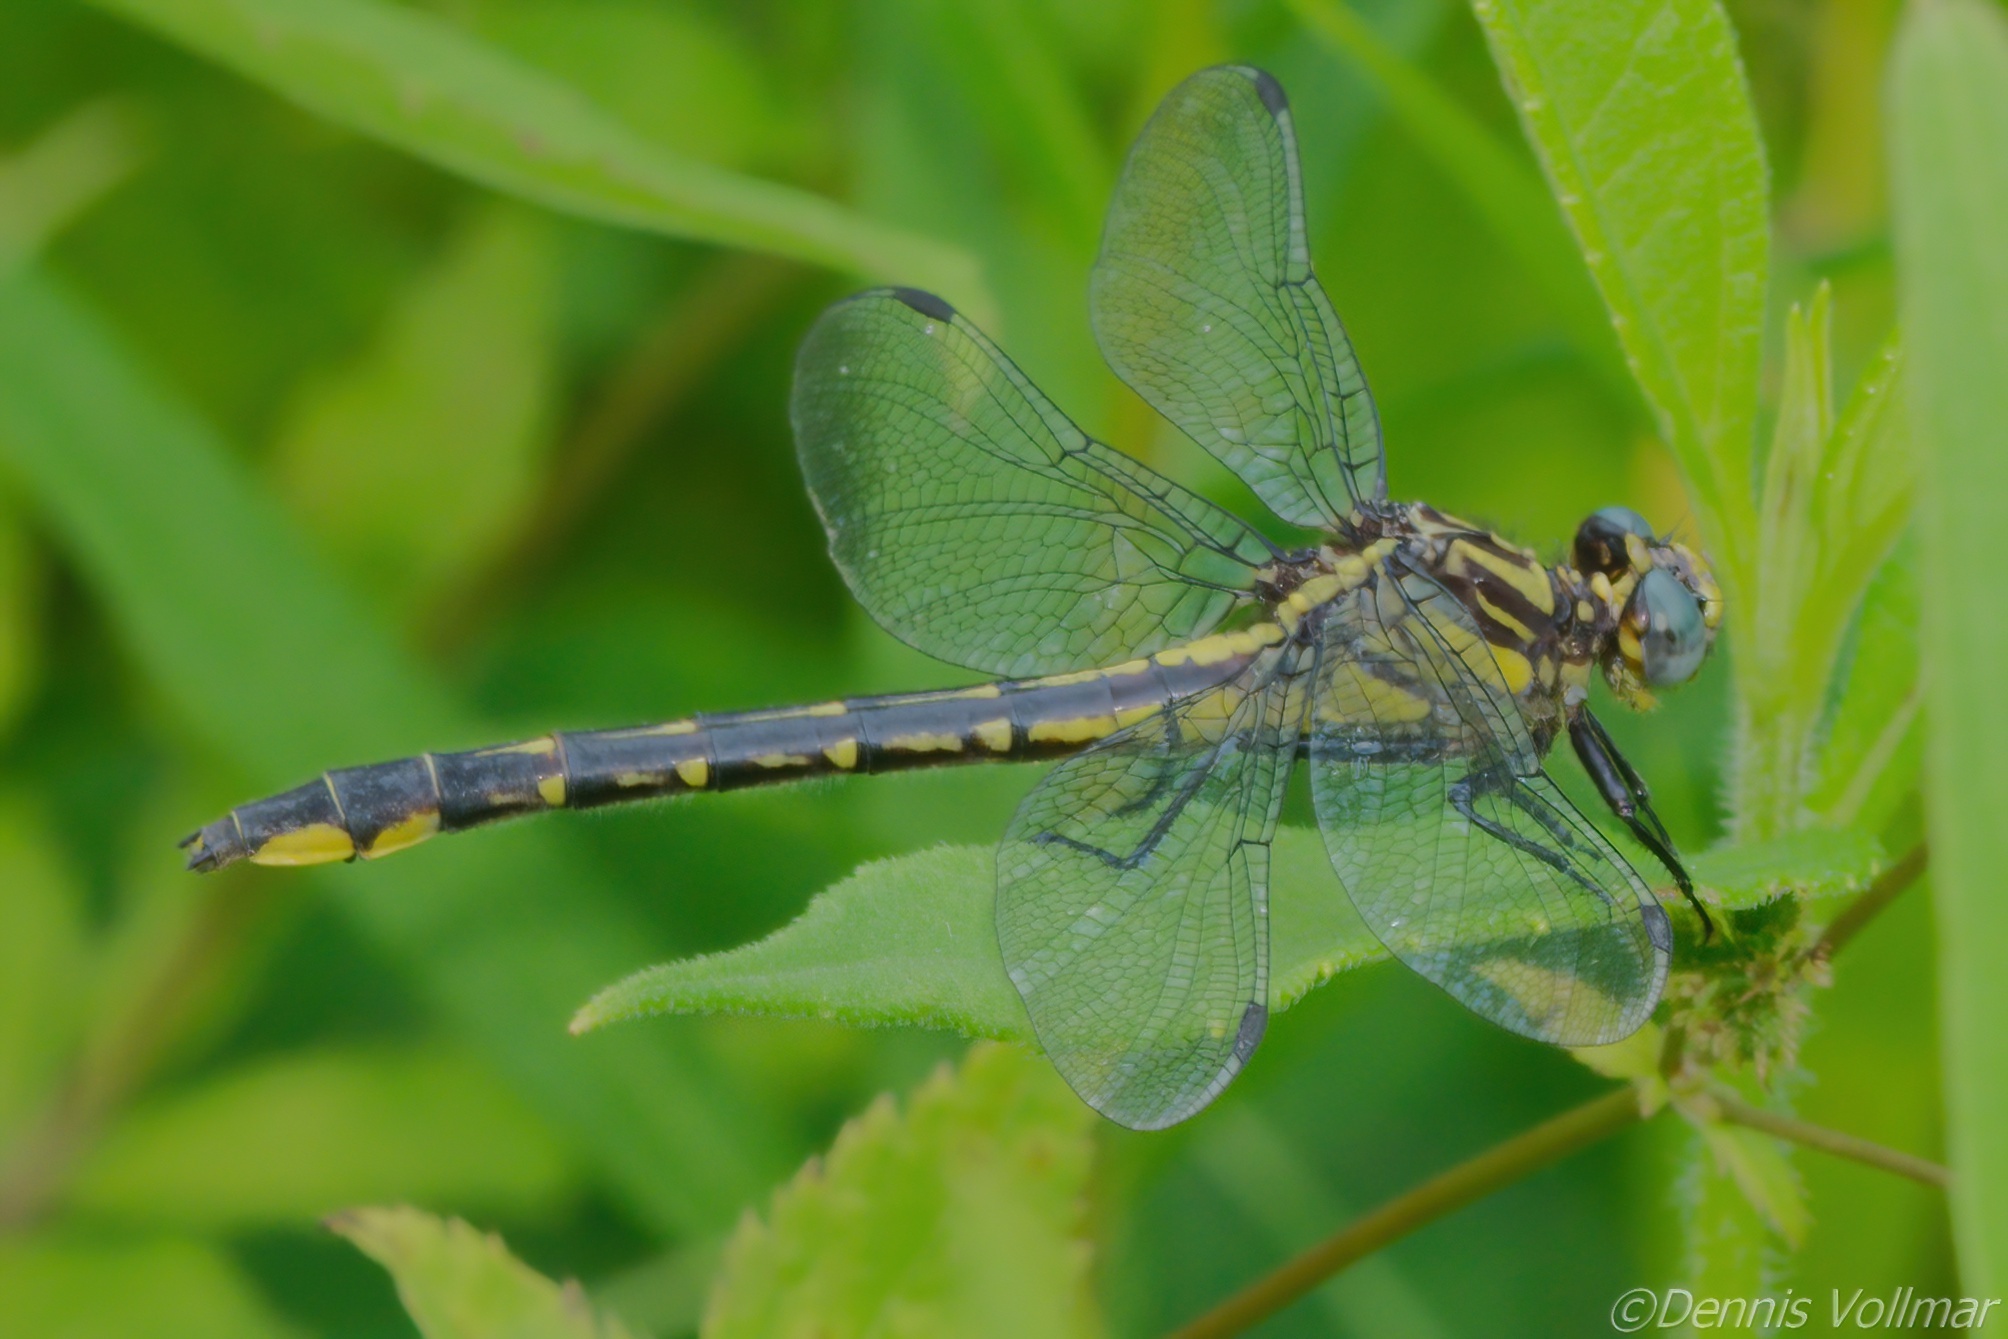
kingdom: Animalia
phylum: Arthropoda
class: Insecta
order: Odonata
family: Gomphidae
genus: Phanogomphus
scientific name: Phanogomphus quadricolor
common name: Rapids clubtail
